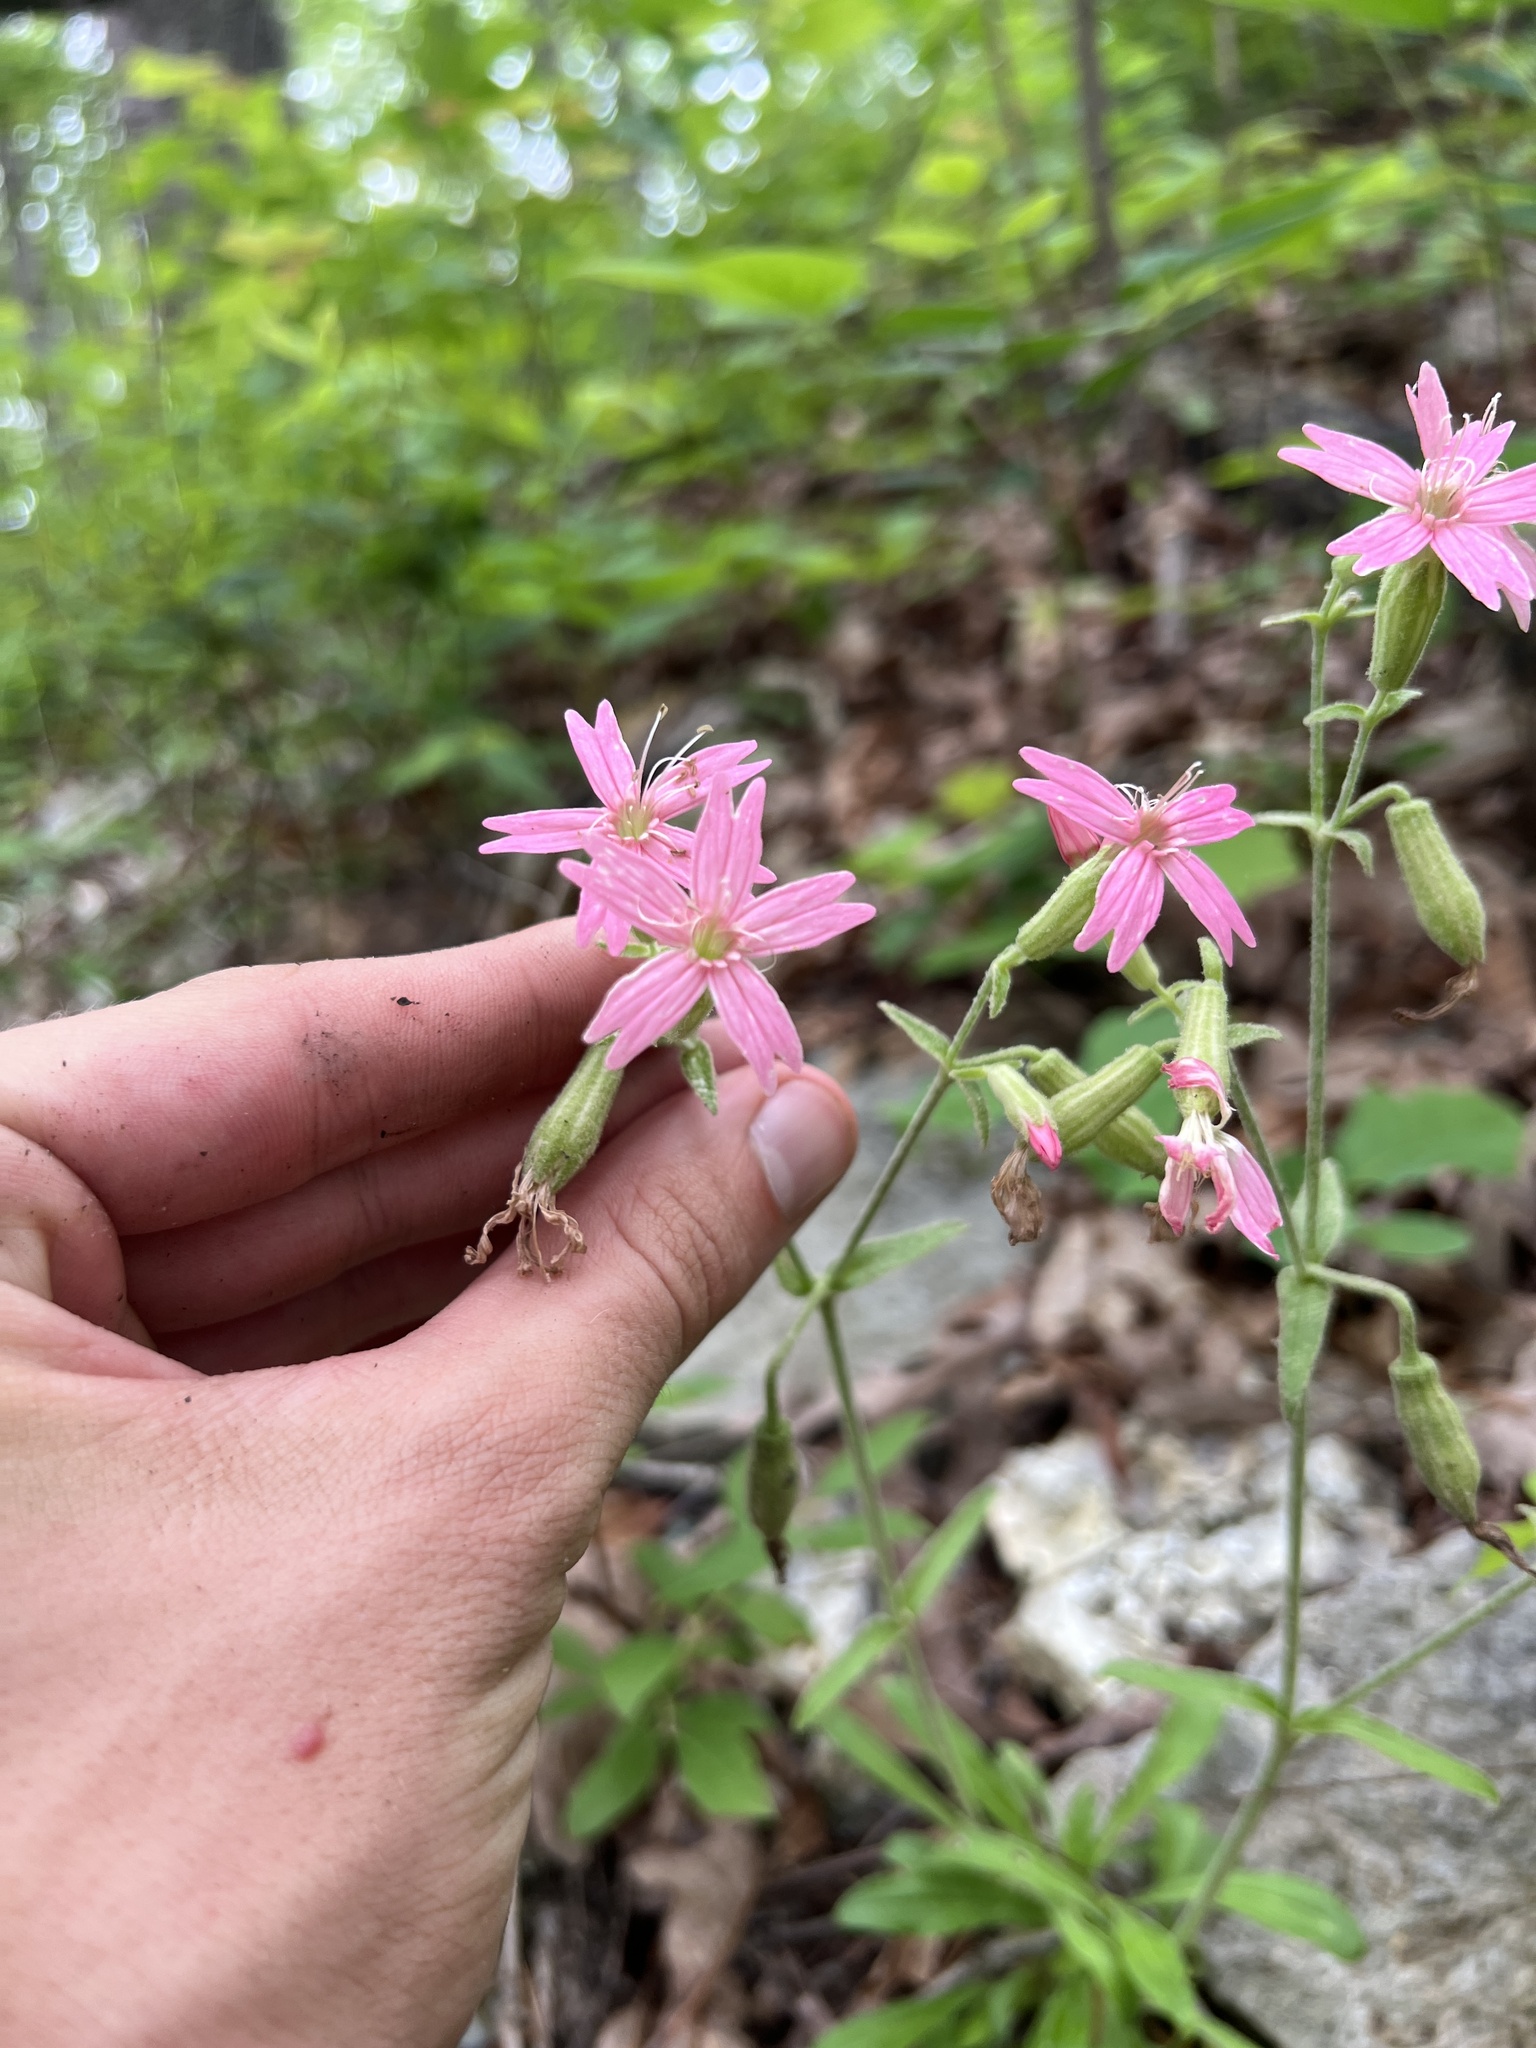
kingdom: Plantae
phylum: Tracheophyta
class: Magnoliopsida
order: Caryophyllales
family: Caryophyllaceae
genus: Silene
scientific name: Silene virginica
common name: Fire-pink
